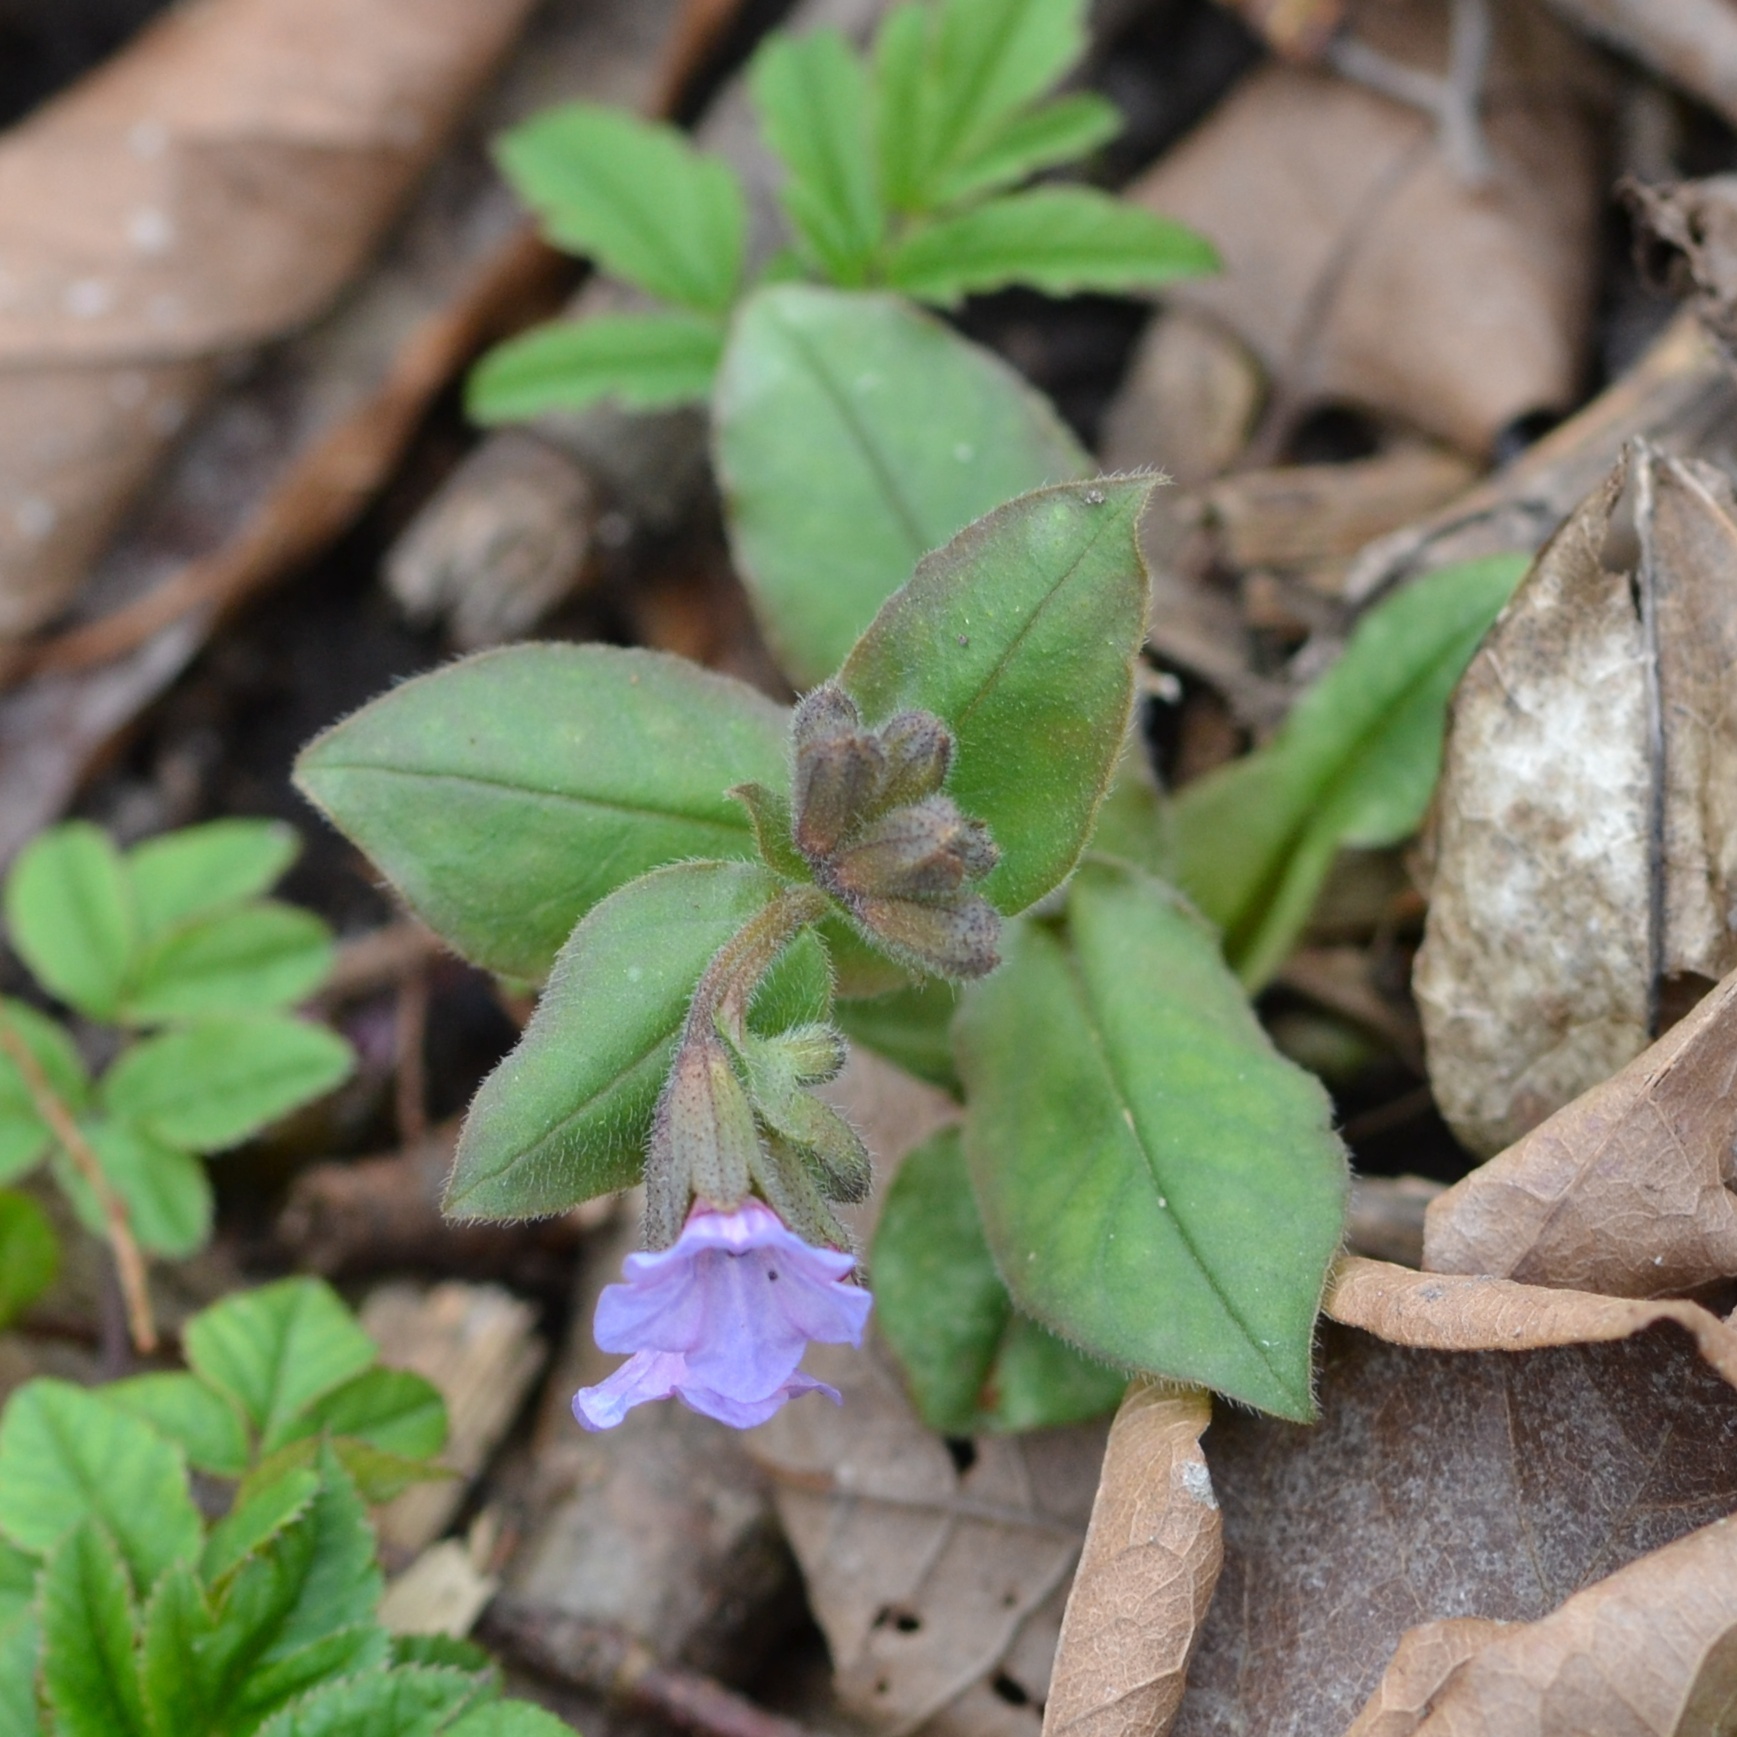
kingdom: Plantae
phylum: Tracheophyta
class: Magnoliopsida
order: Boraginales
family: Boraginaceae
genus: Pulmonaria
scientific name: Pulmonaria obscura
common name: Suffolk lungwort
